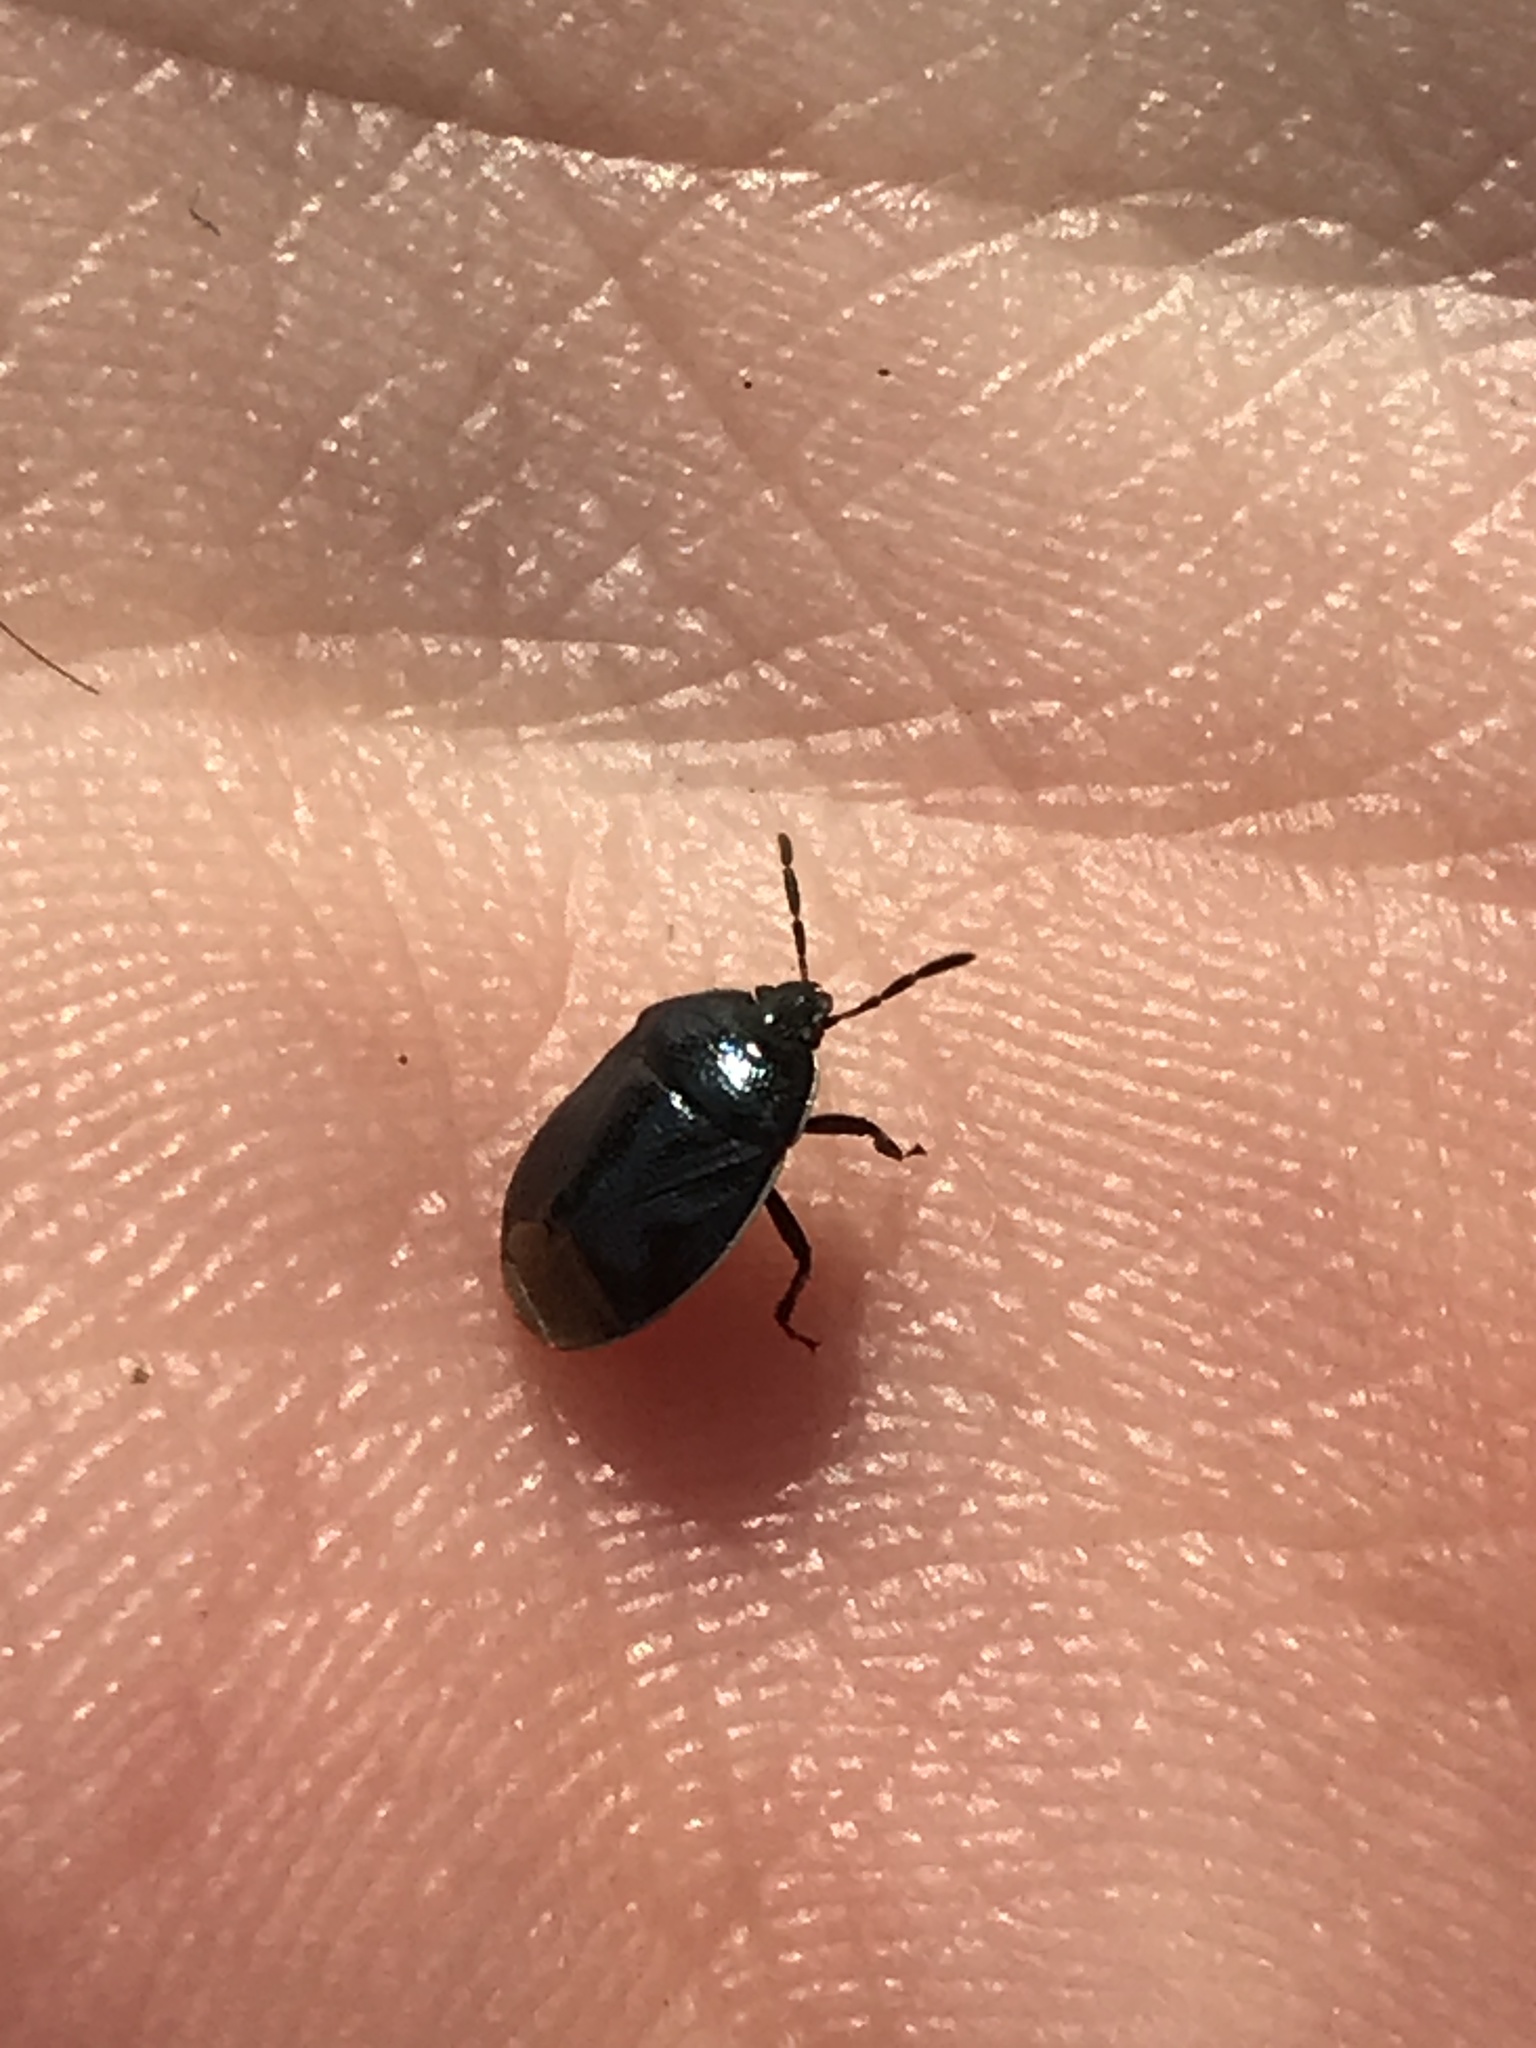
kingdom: Animalia
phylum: Arthropoda
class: Insecta
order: Hemiptera
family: Cydnidae
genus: Sehirus
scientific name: Sehirus cinctus
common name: White-margined burrower bug
